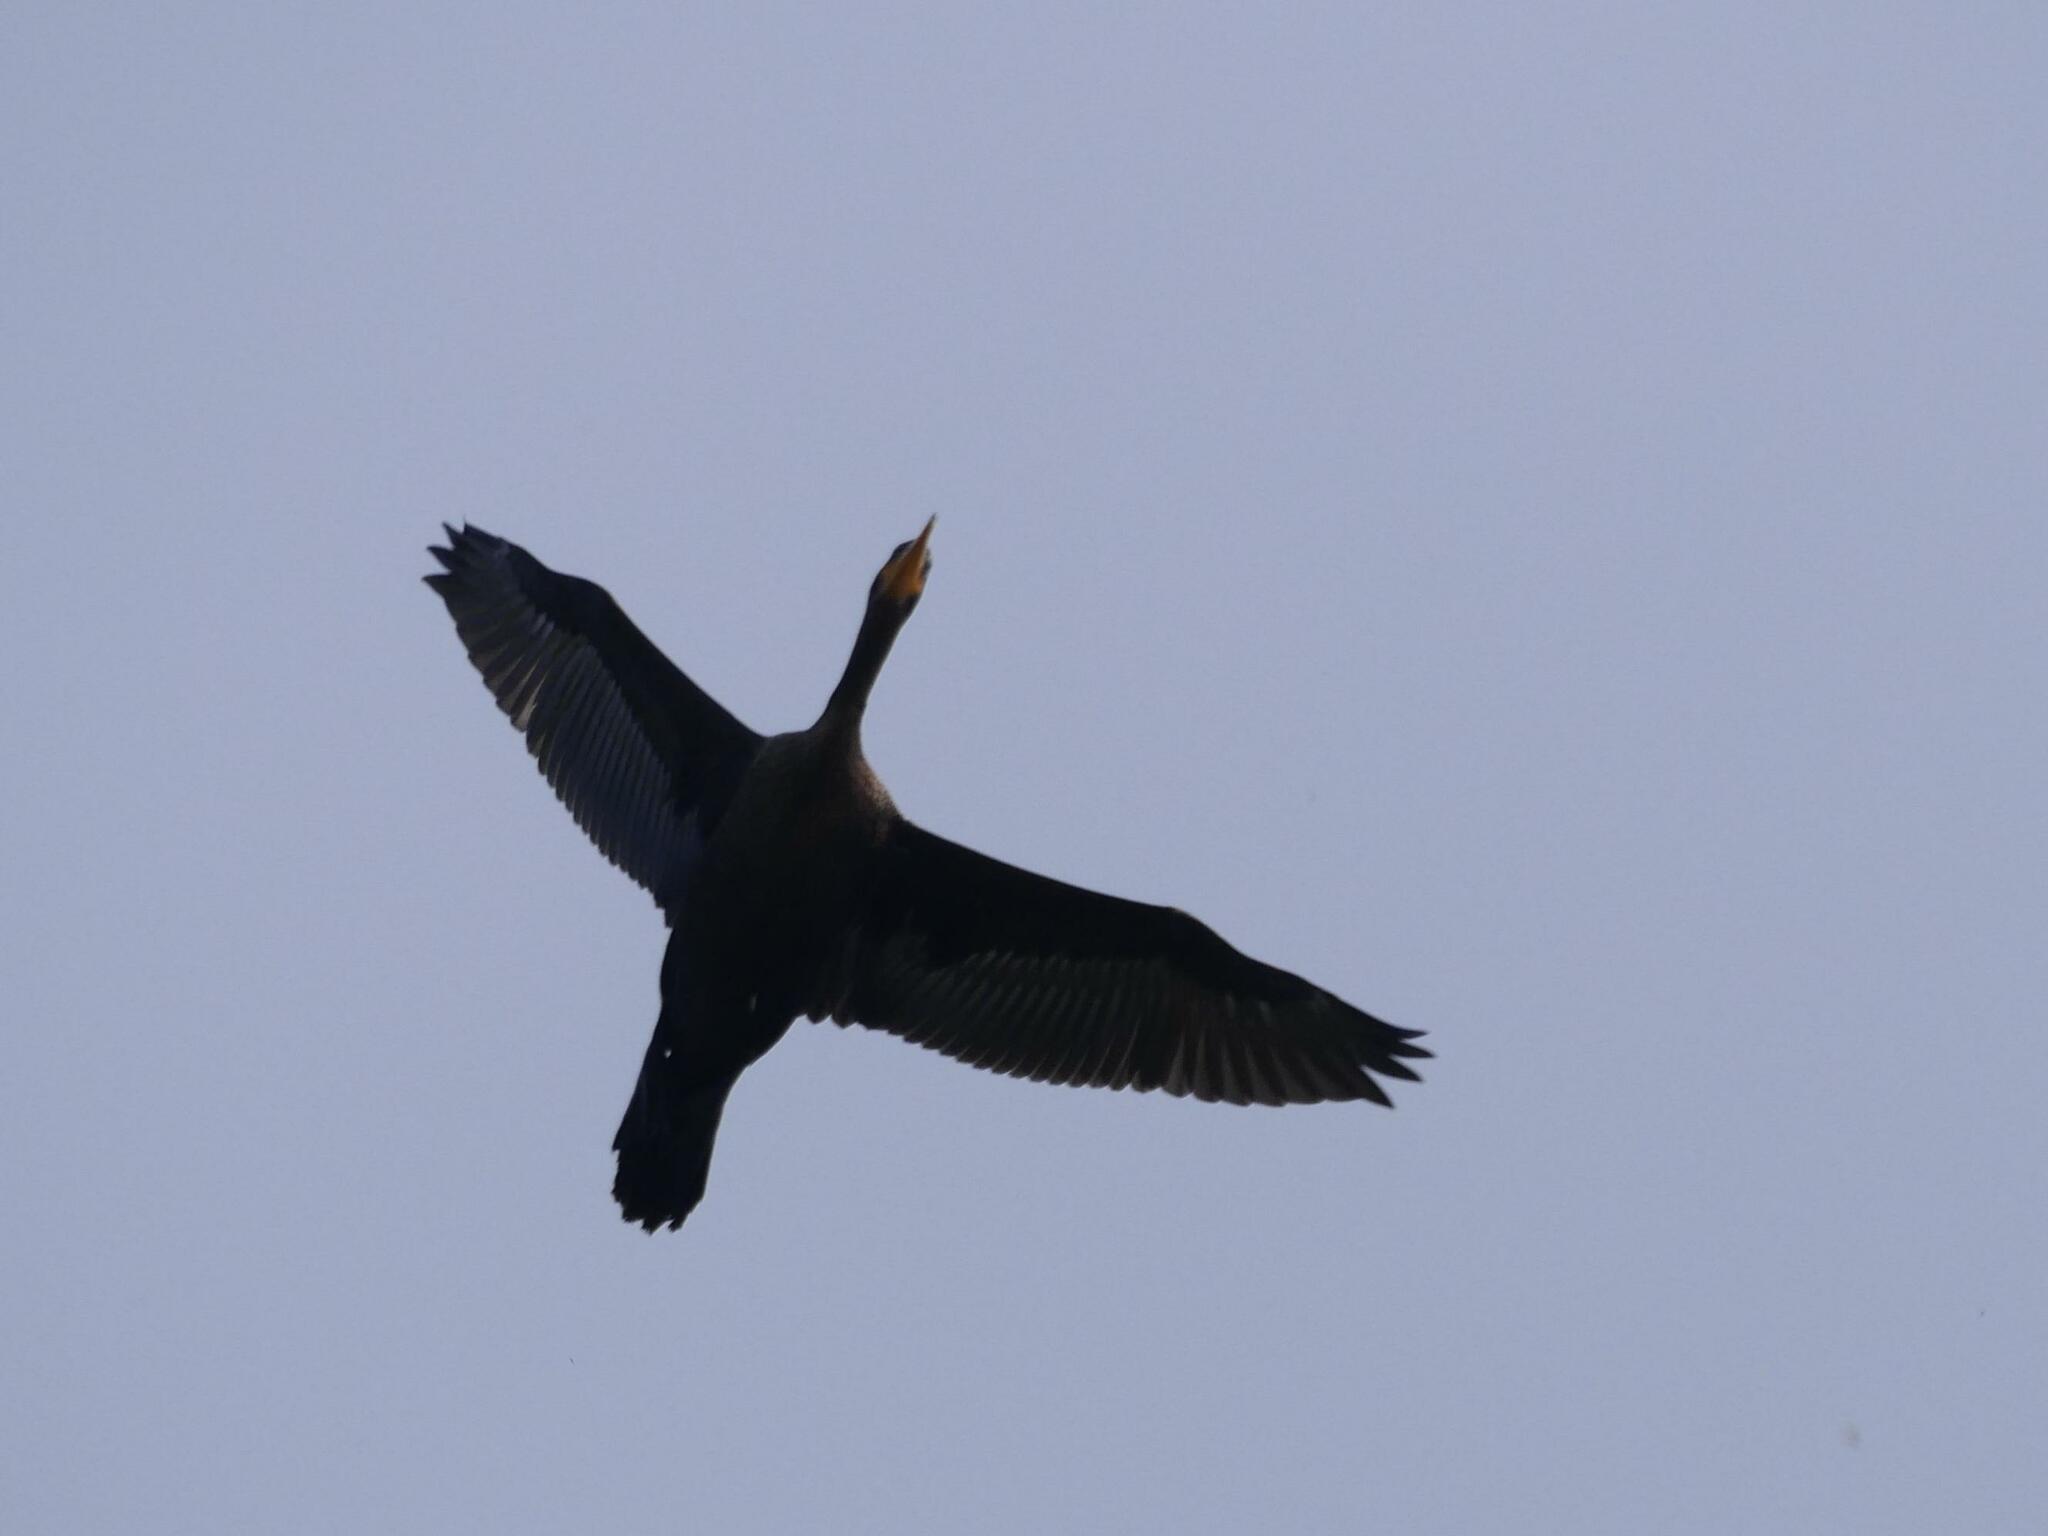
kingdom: Animalia
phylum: Chordata
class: Aves
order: Suliformes
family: Phalacrocoracidae
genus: Phalacrocorax
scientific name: Phalacrocorax auritus
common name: Double-crested cormorant
